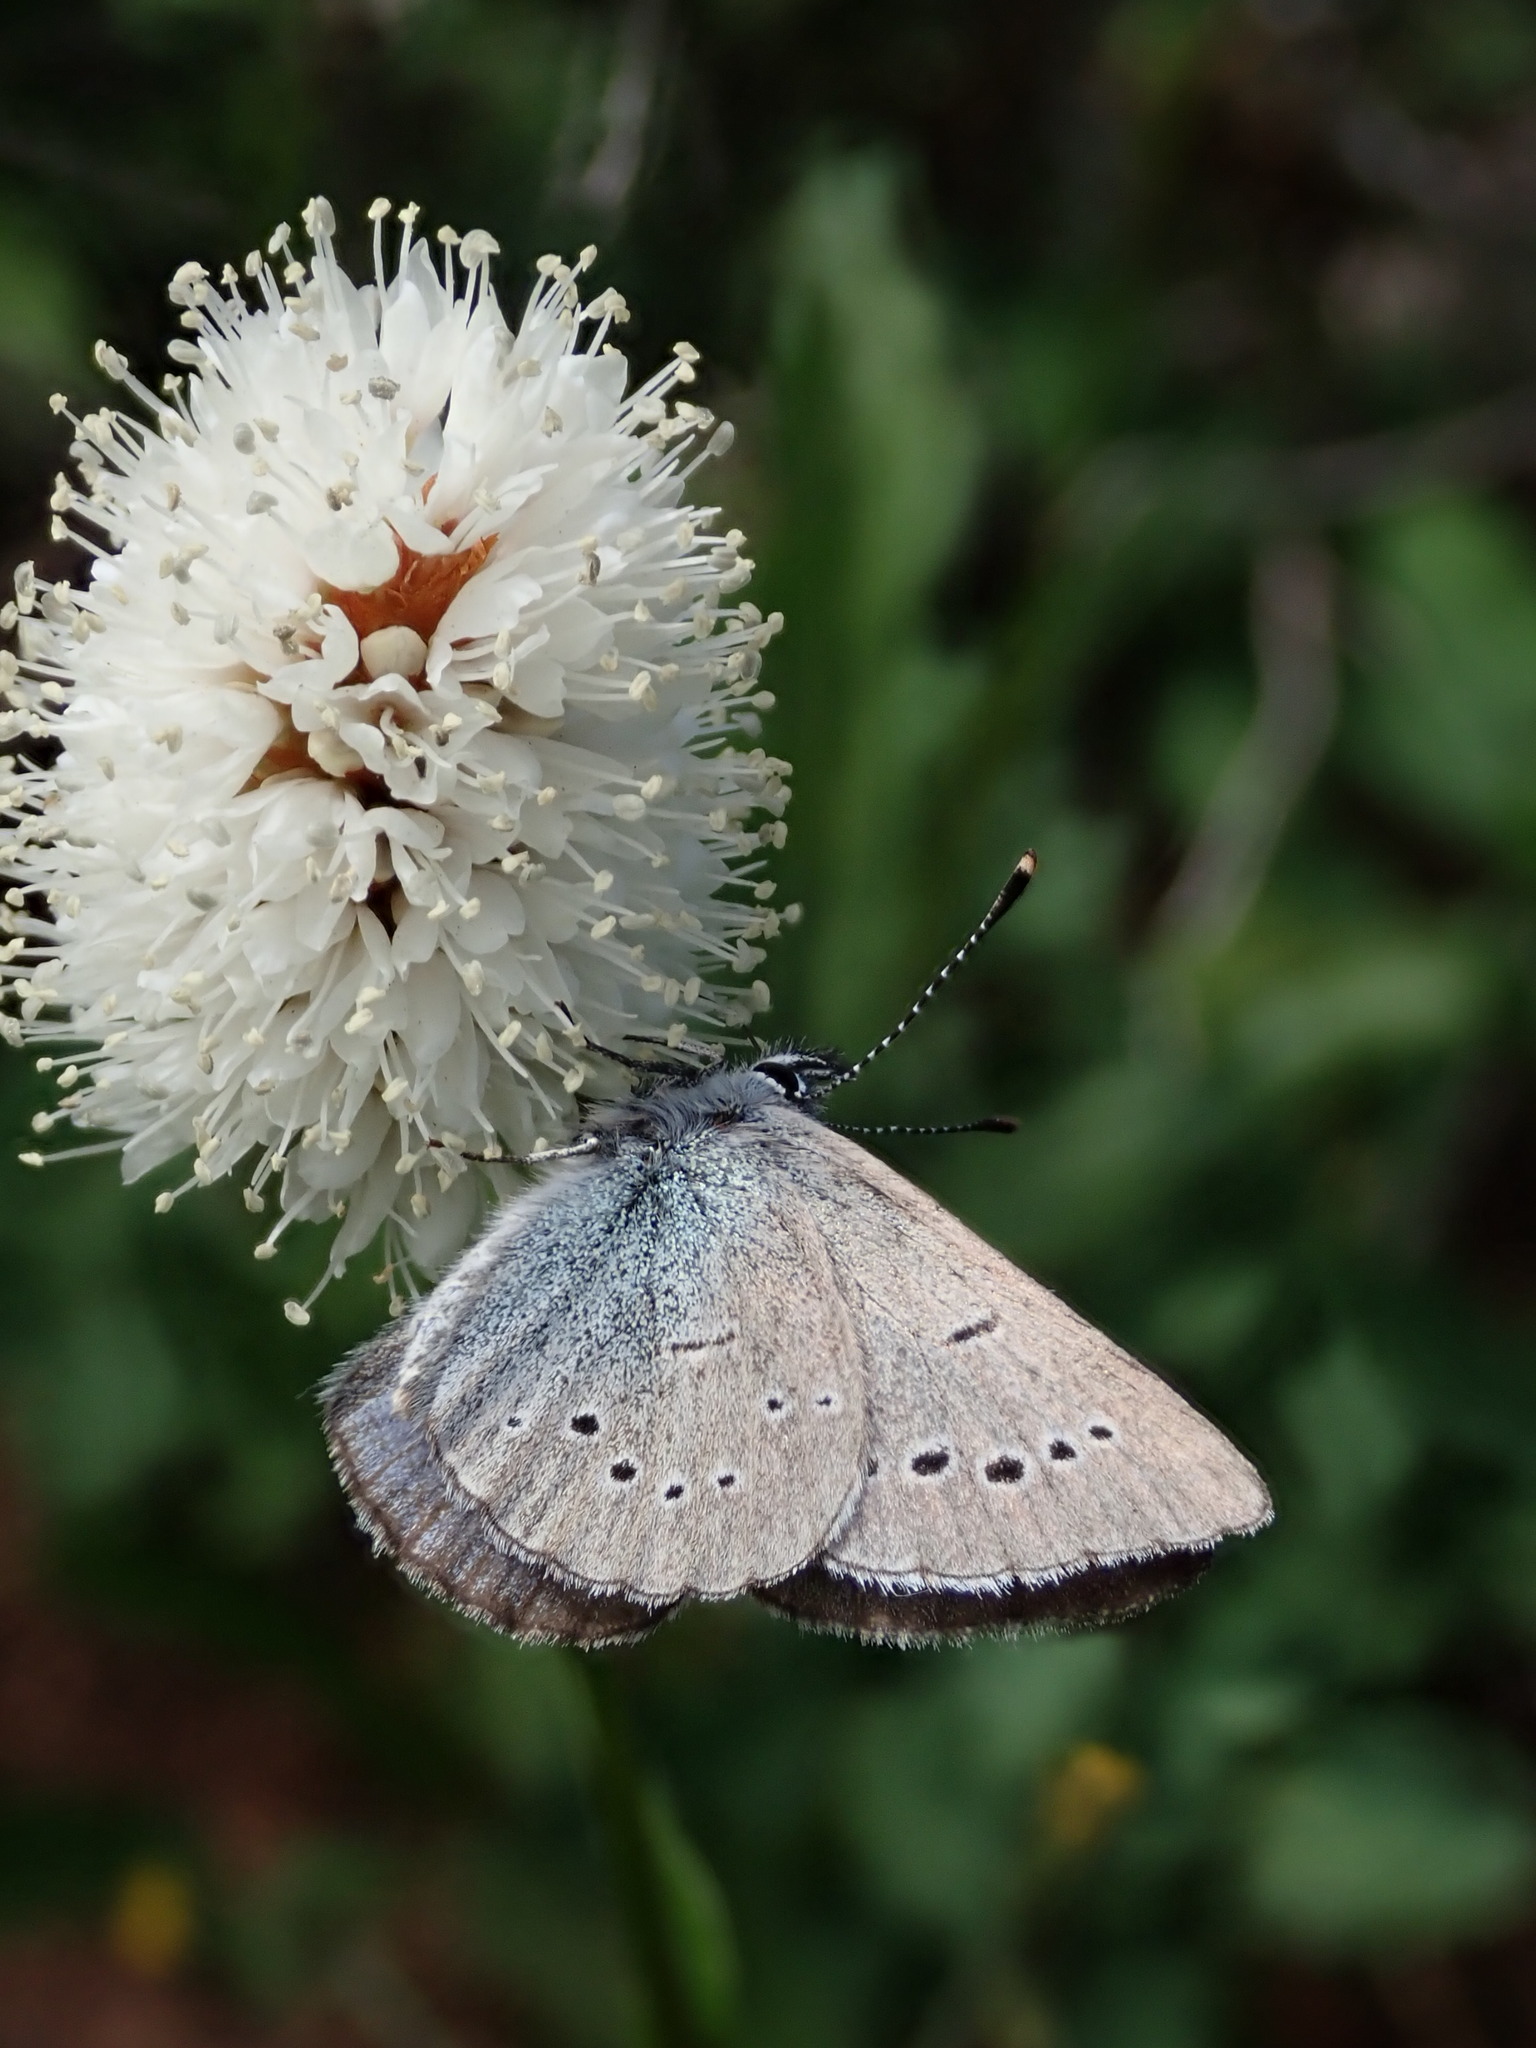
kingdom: Animalia
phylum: Arthropoda
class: Insecta
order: Lepidoptera
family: Lycaenidae
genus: Glaucopsyche
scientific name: Glaucopsyche lygdamus
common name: Silvery blue
